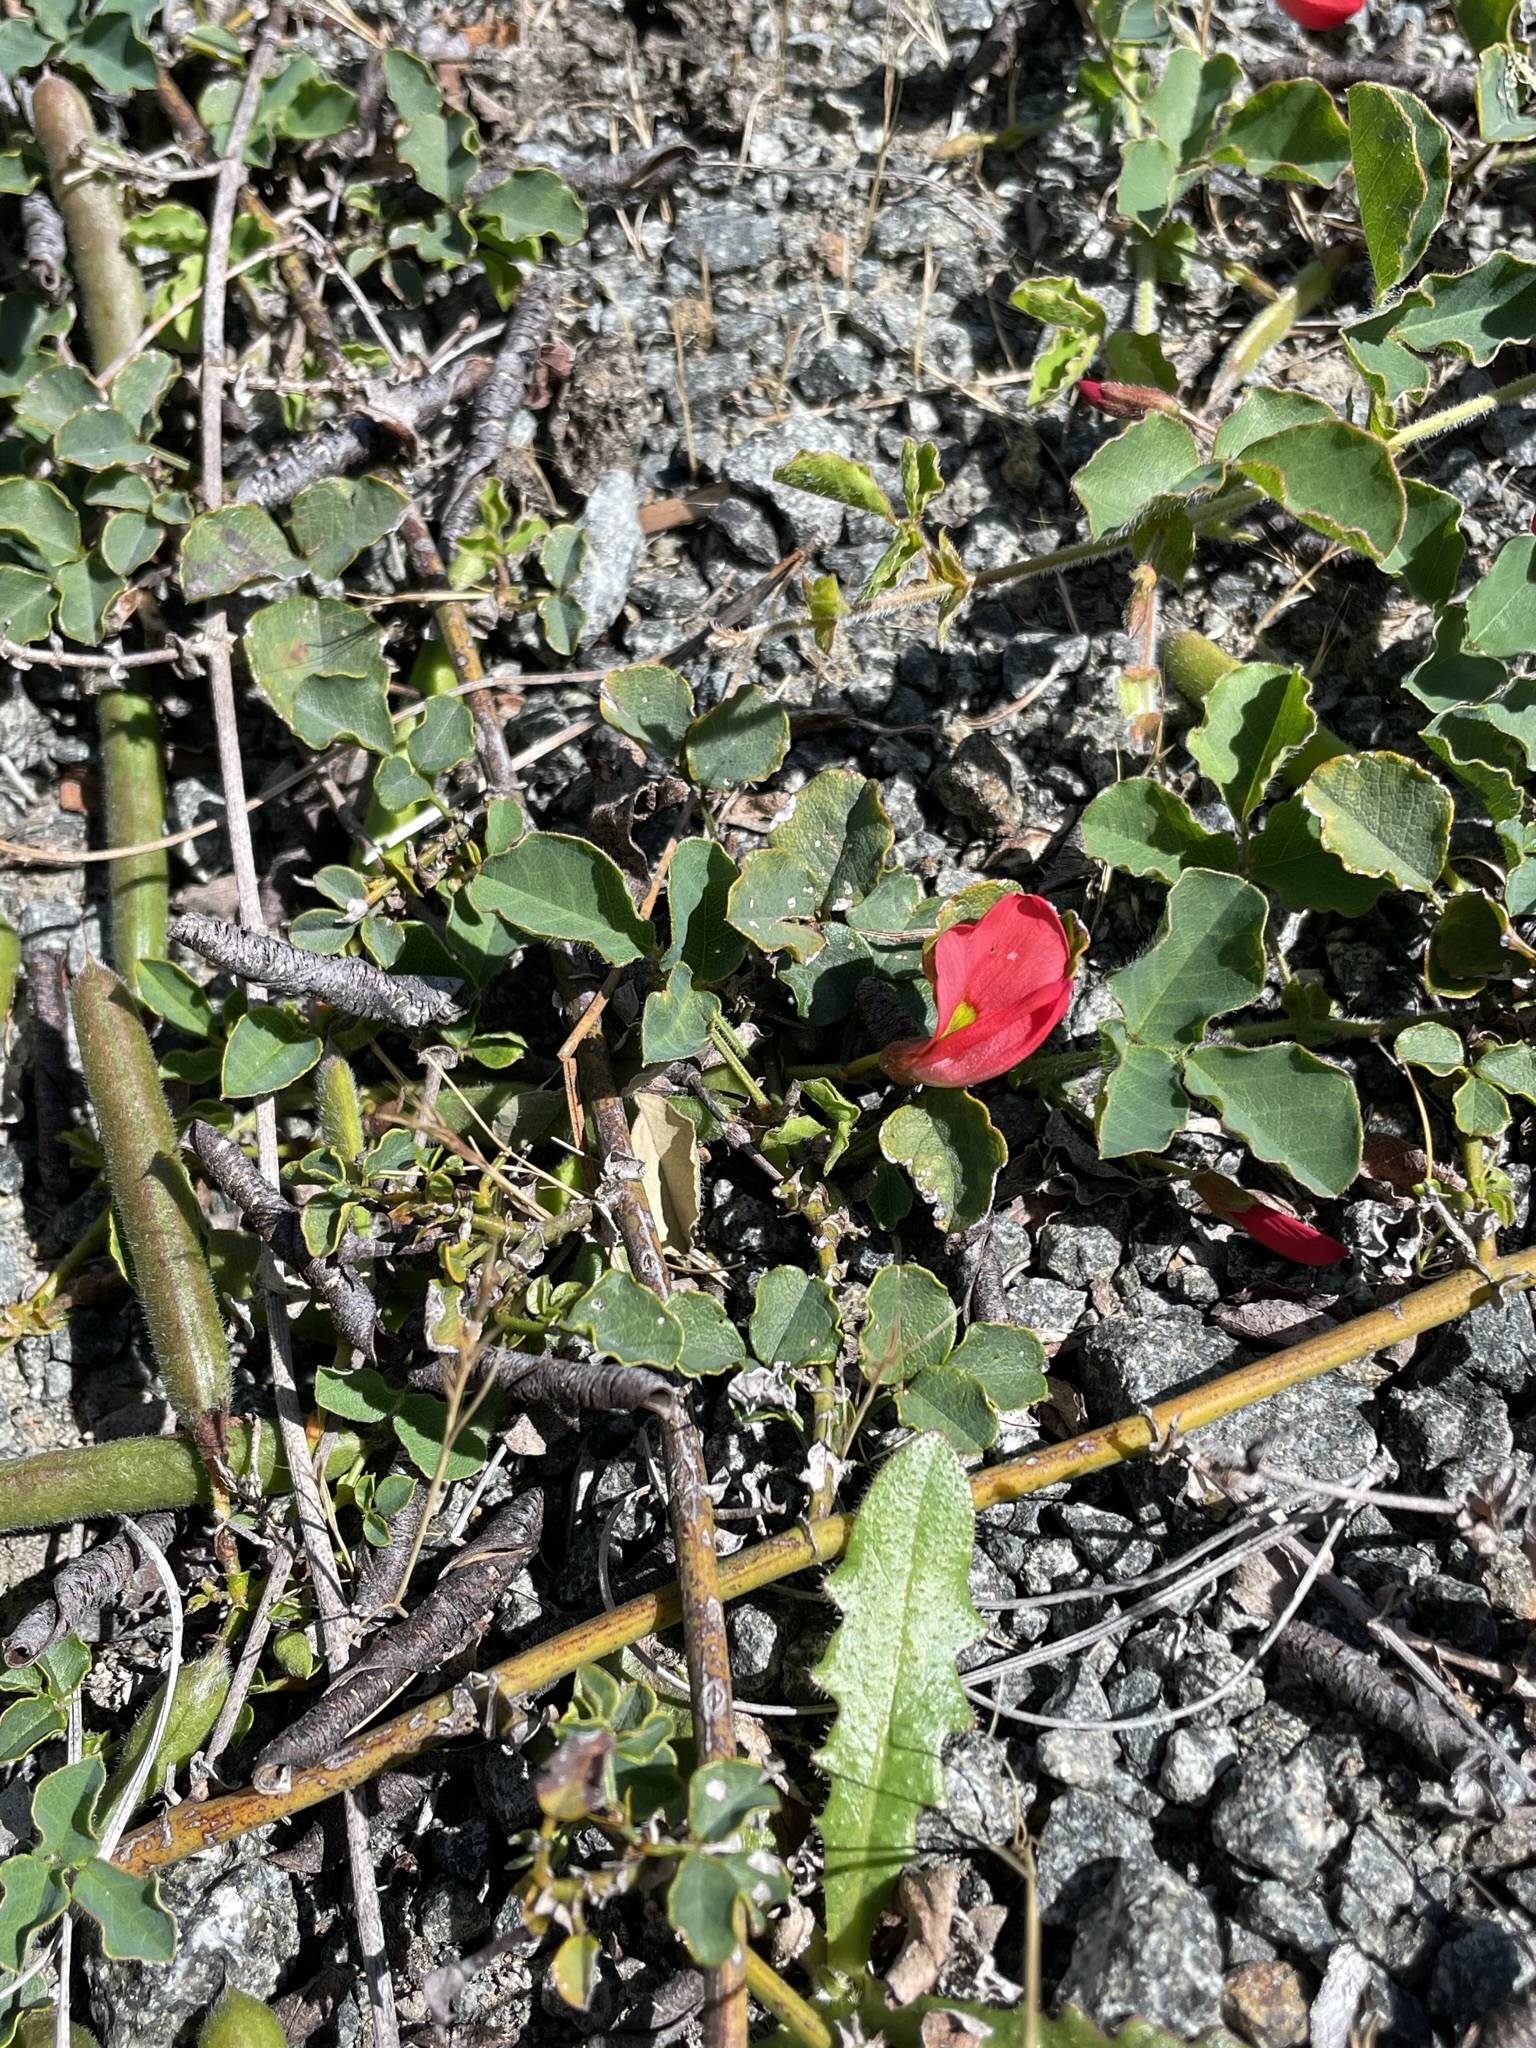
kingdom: Plantae
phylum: Tracheophyta
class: Magnoliopsida
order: Fabales
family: Fabaceae
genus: Kennedia
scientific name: Kennedia prostrata
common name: Running-postman
